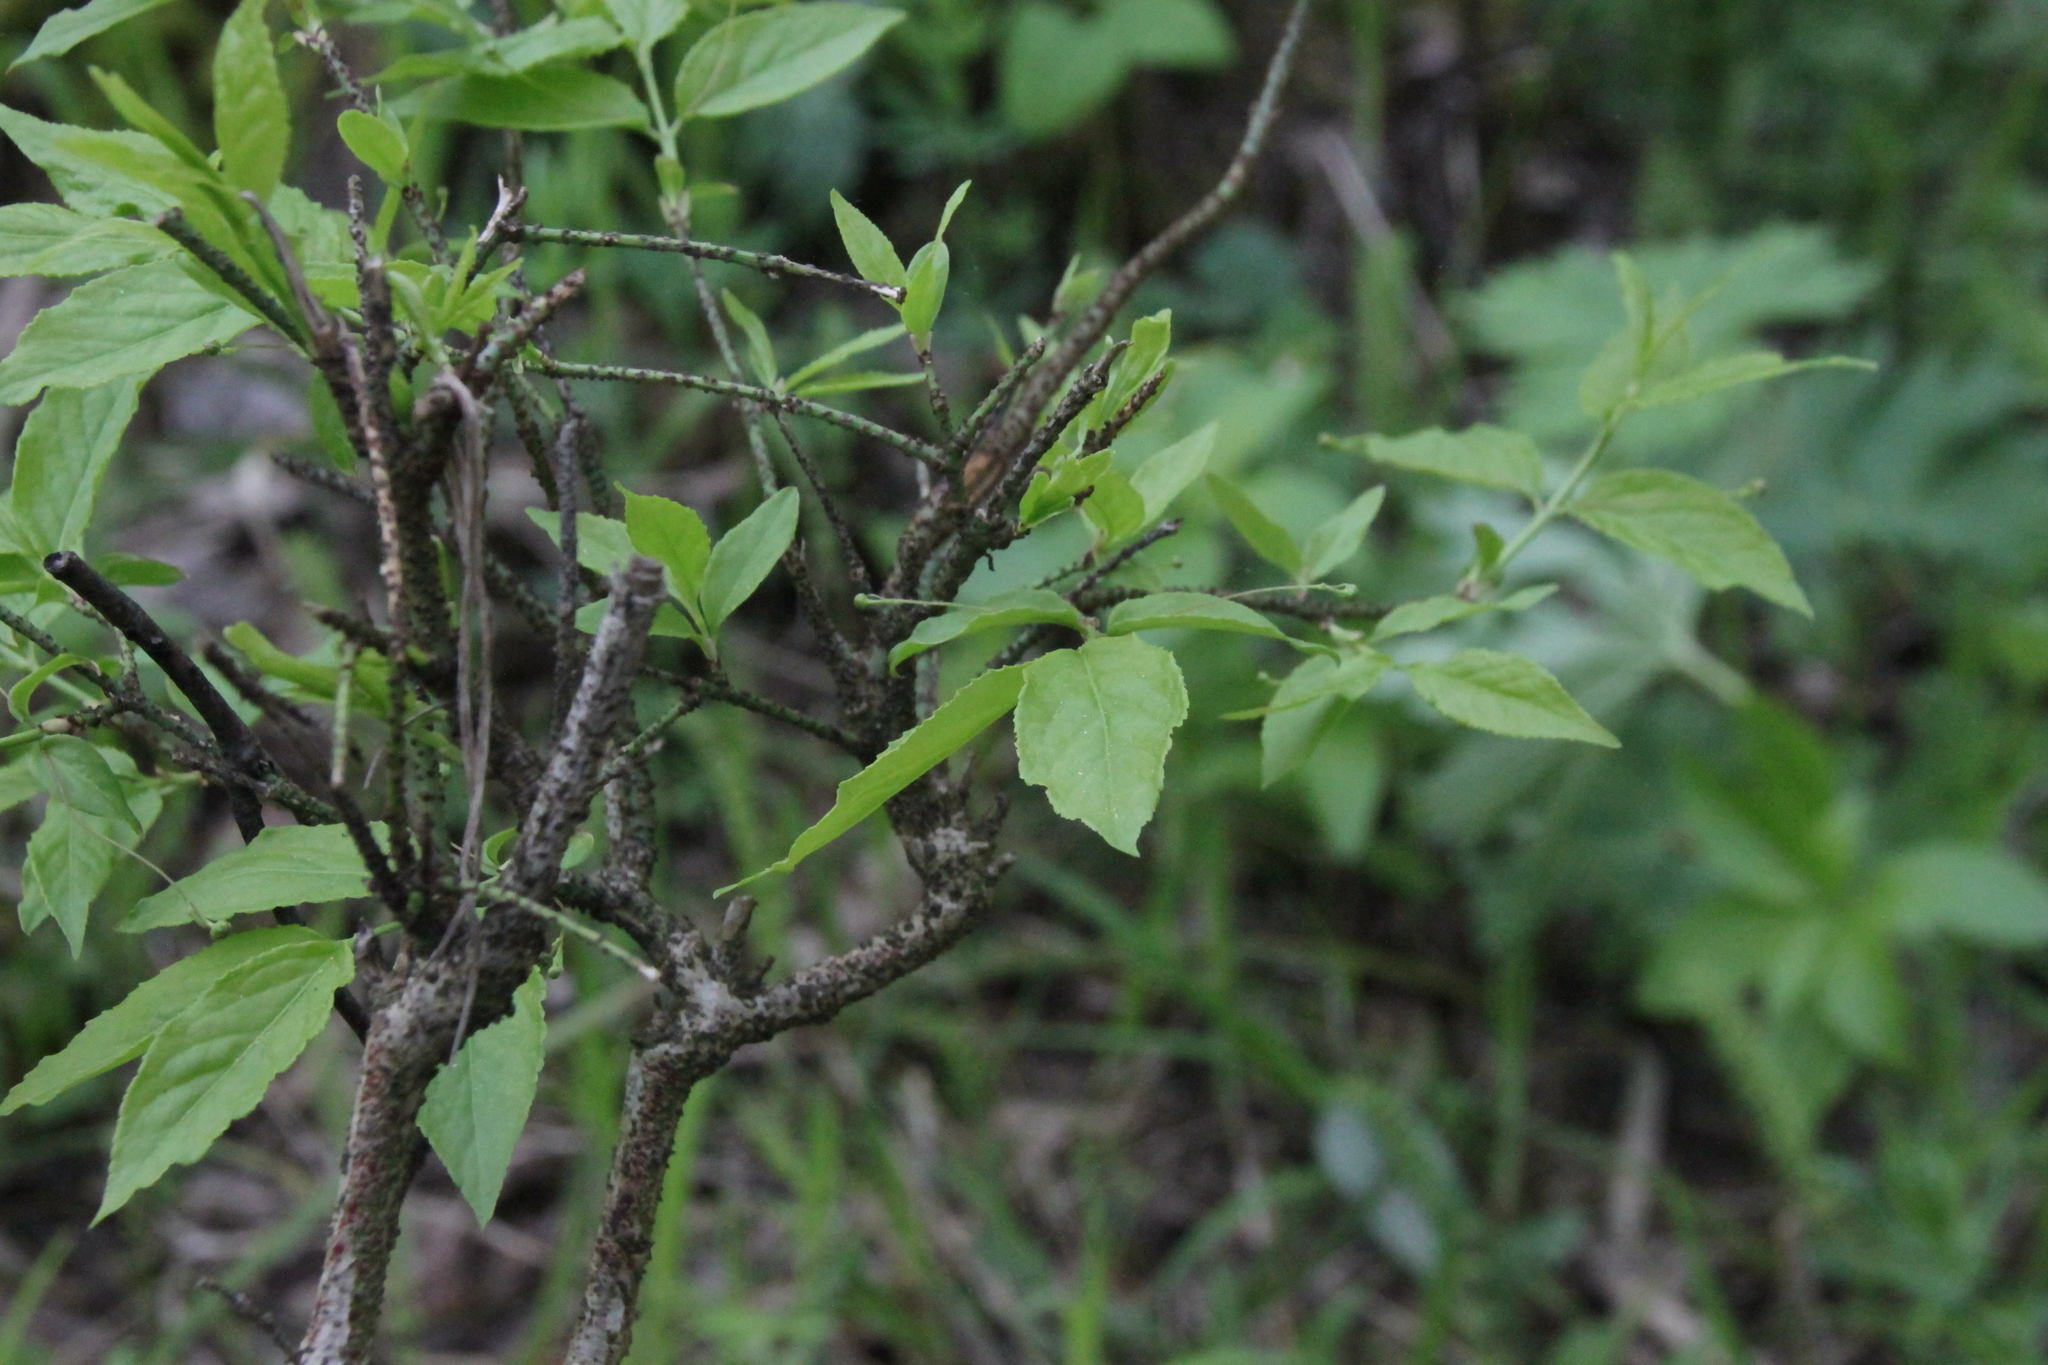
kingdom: Plantae
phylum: Tracheophyta
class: Magnoliopsida
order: Celastrales
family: Celastraceae
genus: Euonymus
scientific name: Euonymus verrucosus
